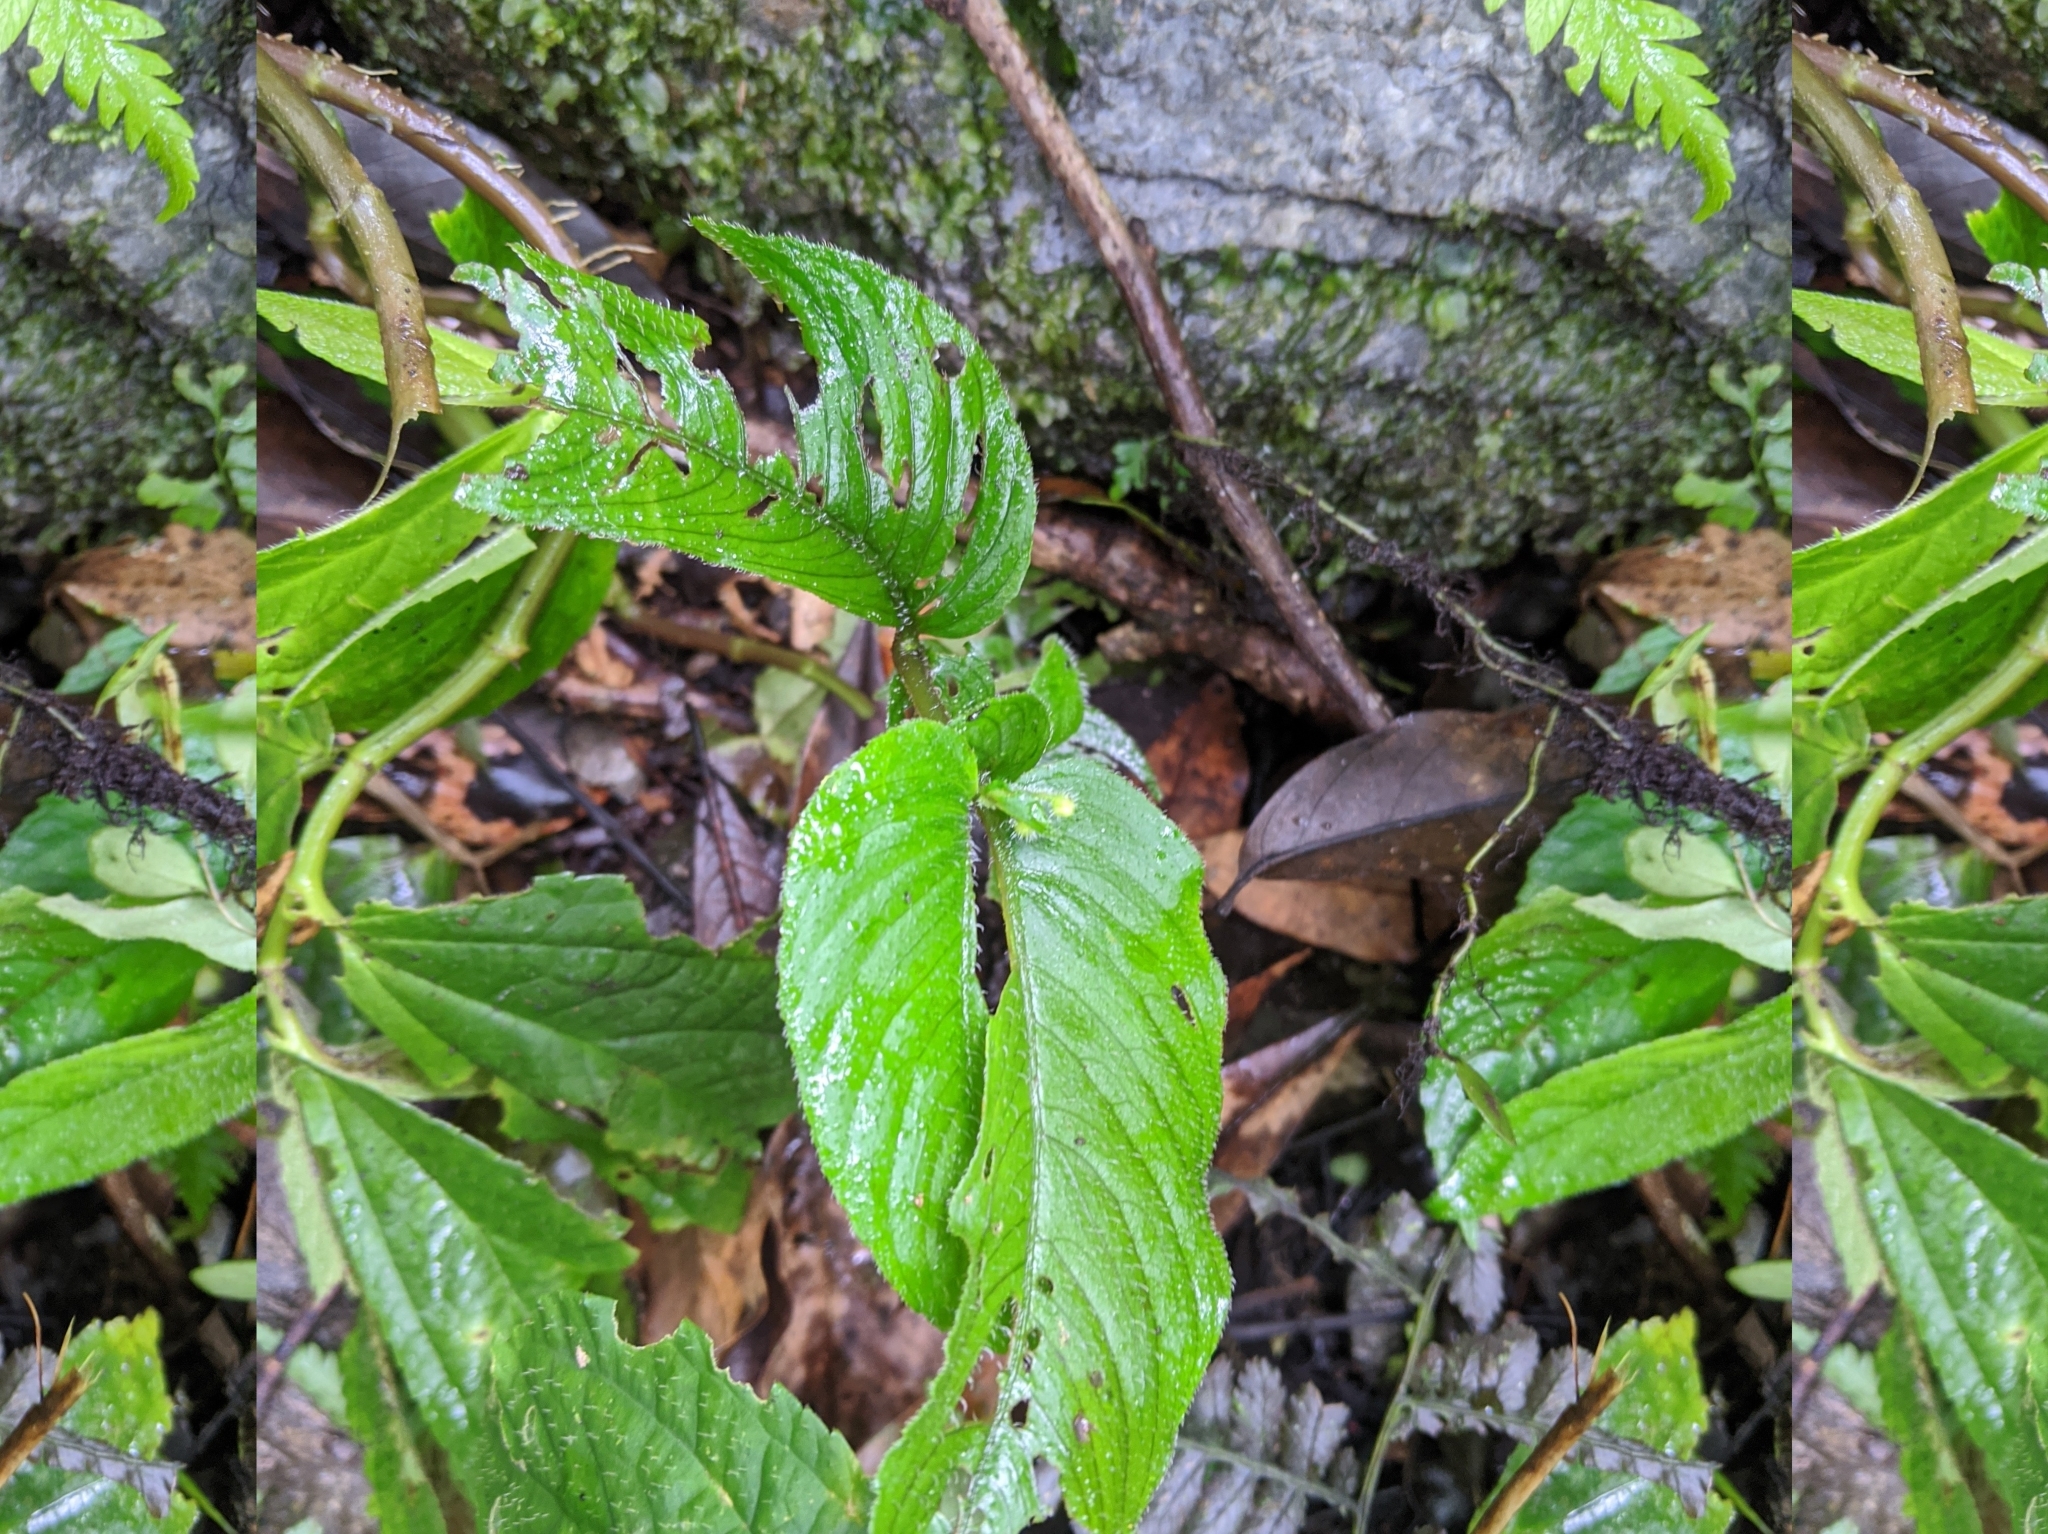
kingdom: Plantae
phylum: Tracheophyta
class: Magnoliopsida
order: Lamiales
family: Gesneriaceae
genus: Whytockia
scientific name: Whytockia sasakii
